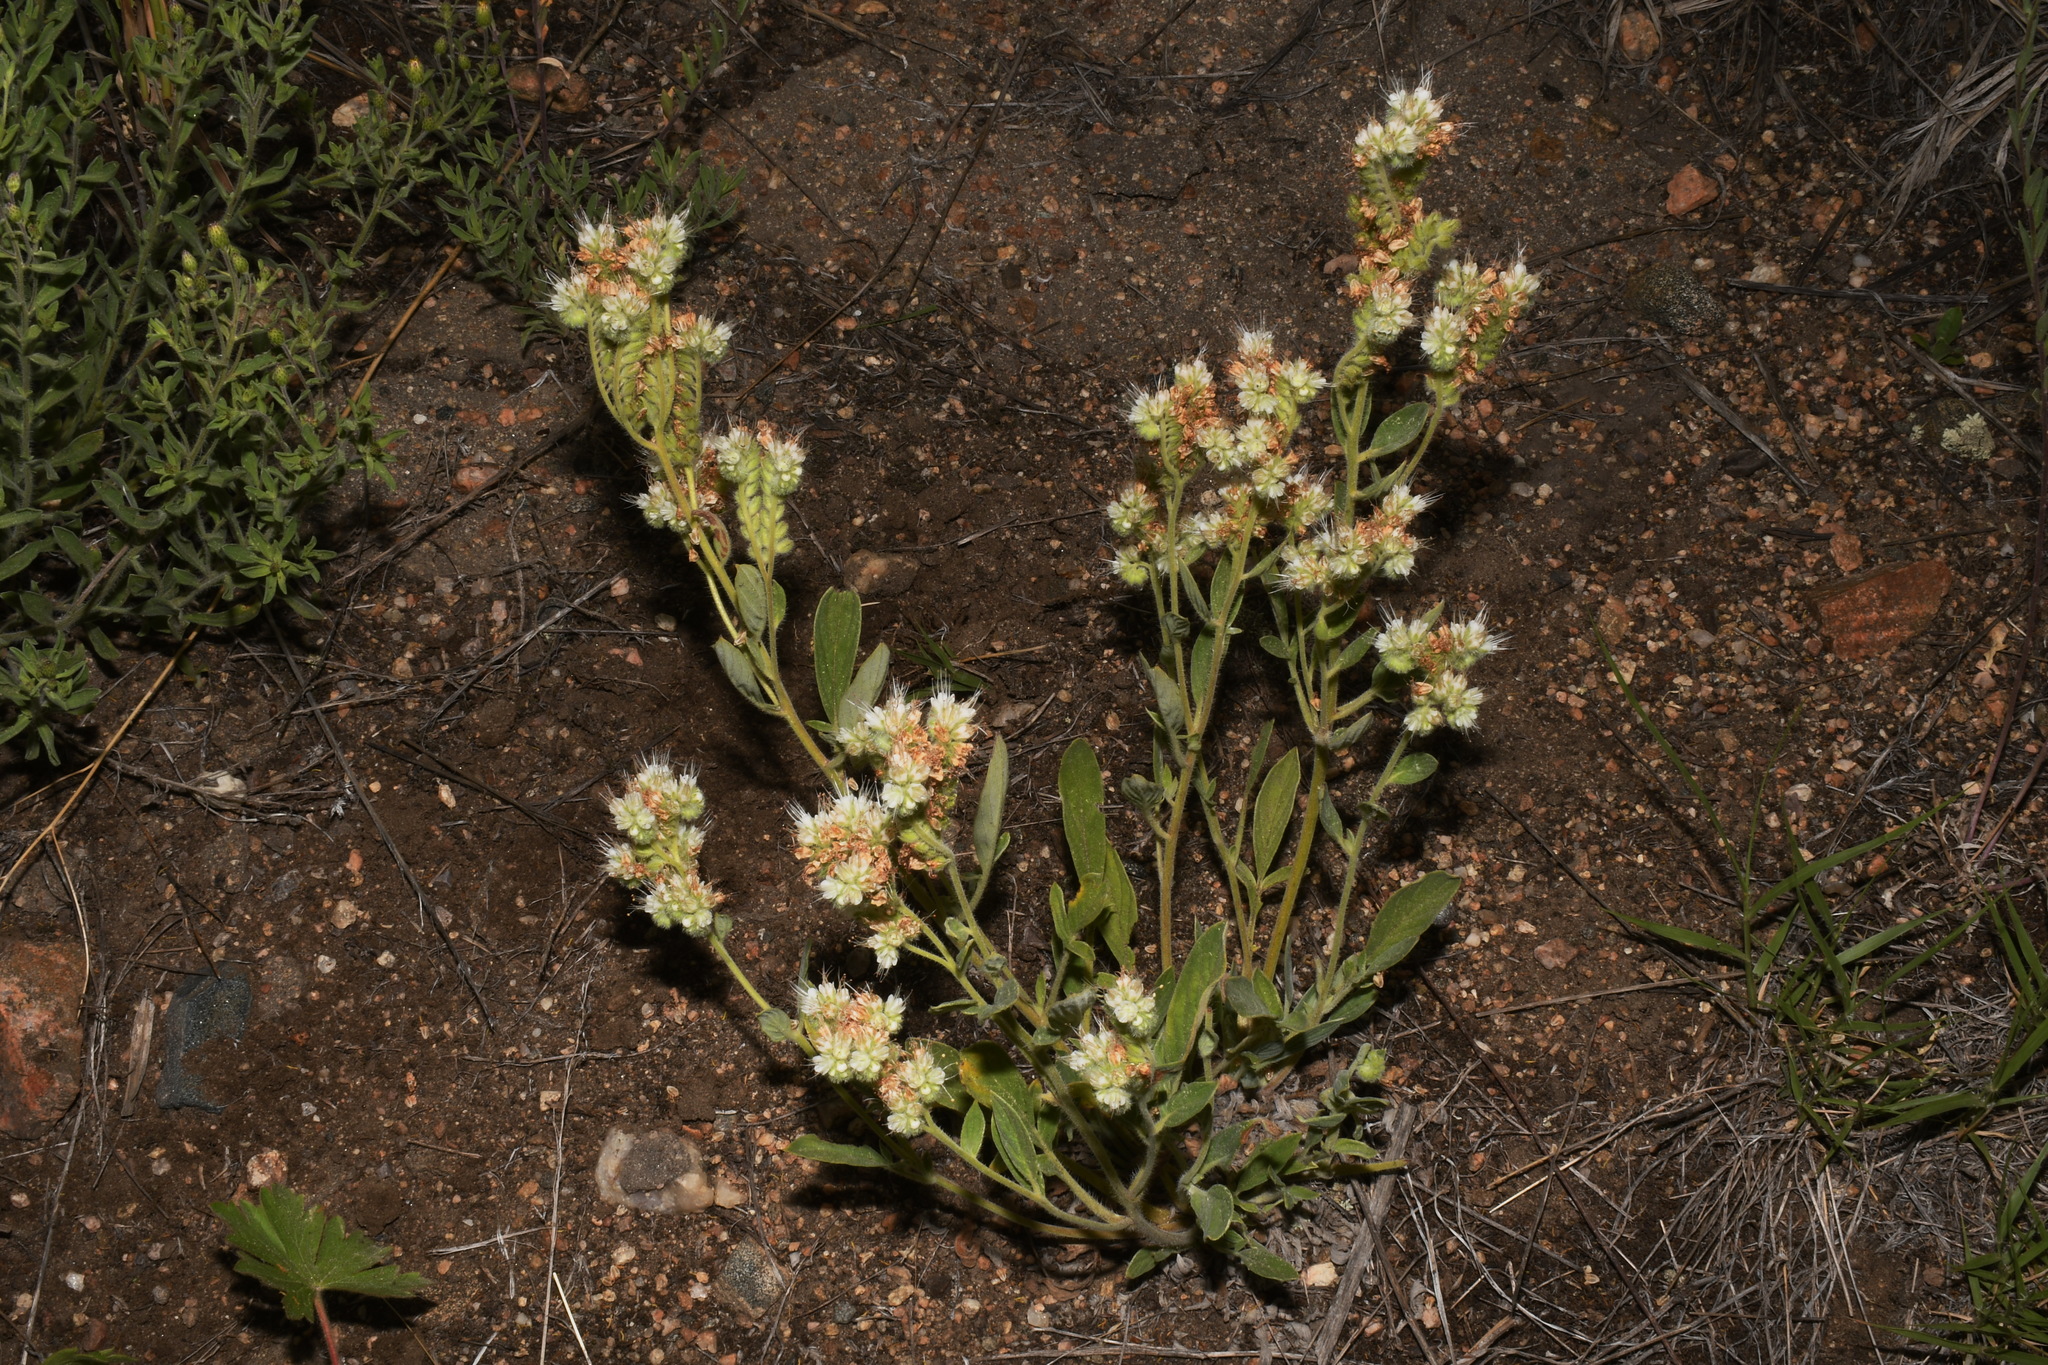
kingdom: Plantae
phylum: Tracheophyta
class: Magnoliopsida
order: Boraginales
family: Hydrophyllaceae
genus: Phacelia
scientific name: Phacelia heterophylla
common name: Variable-leaved phacelia
